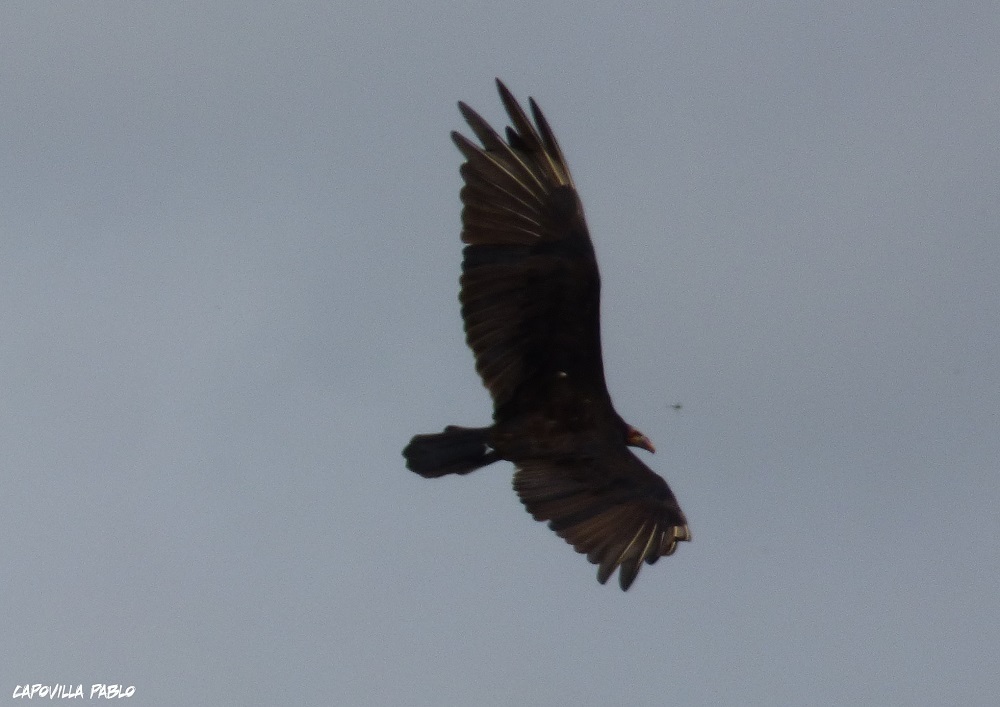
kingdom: Animalia
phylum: Chordata
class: Aves
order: Accipitriformes
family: Cathartidae
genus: Cathartes
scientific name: Cathartes burrovianus
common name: Lesser yellow-headed vulture
